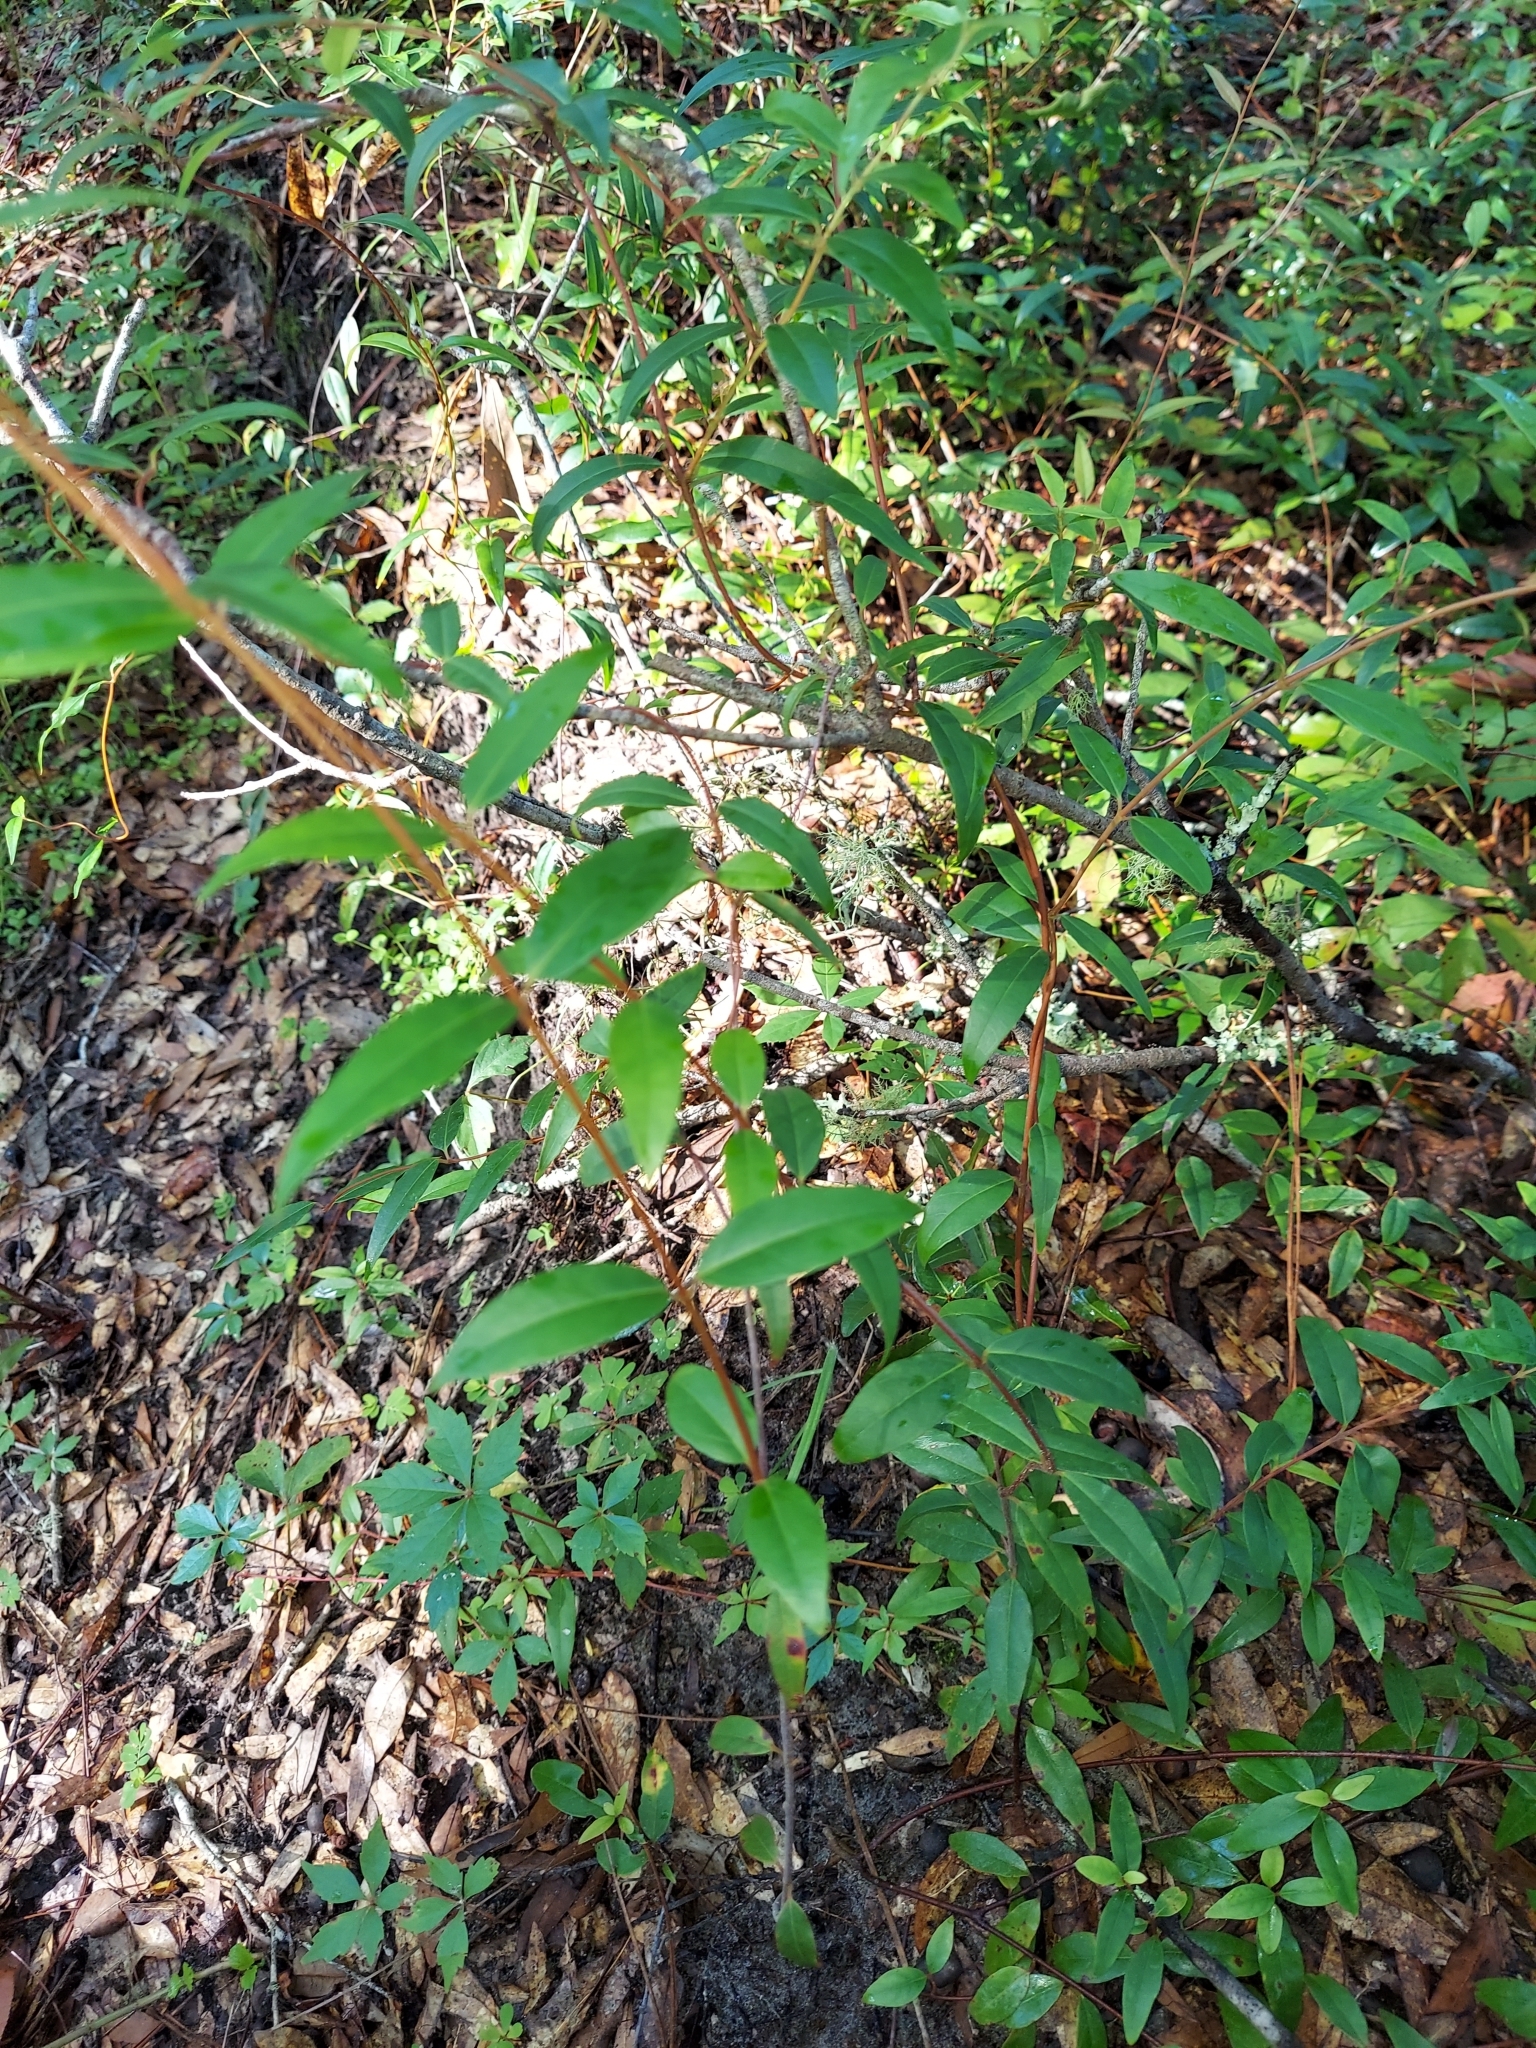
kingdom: Plantae
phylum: Tracheophyta
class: Magnoliopsida
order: Gentianales
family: Gelsemiaceae
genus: Gelsemium
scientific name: Gelsemium sempervirens
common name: Carolina-jasmine
